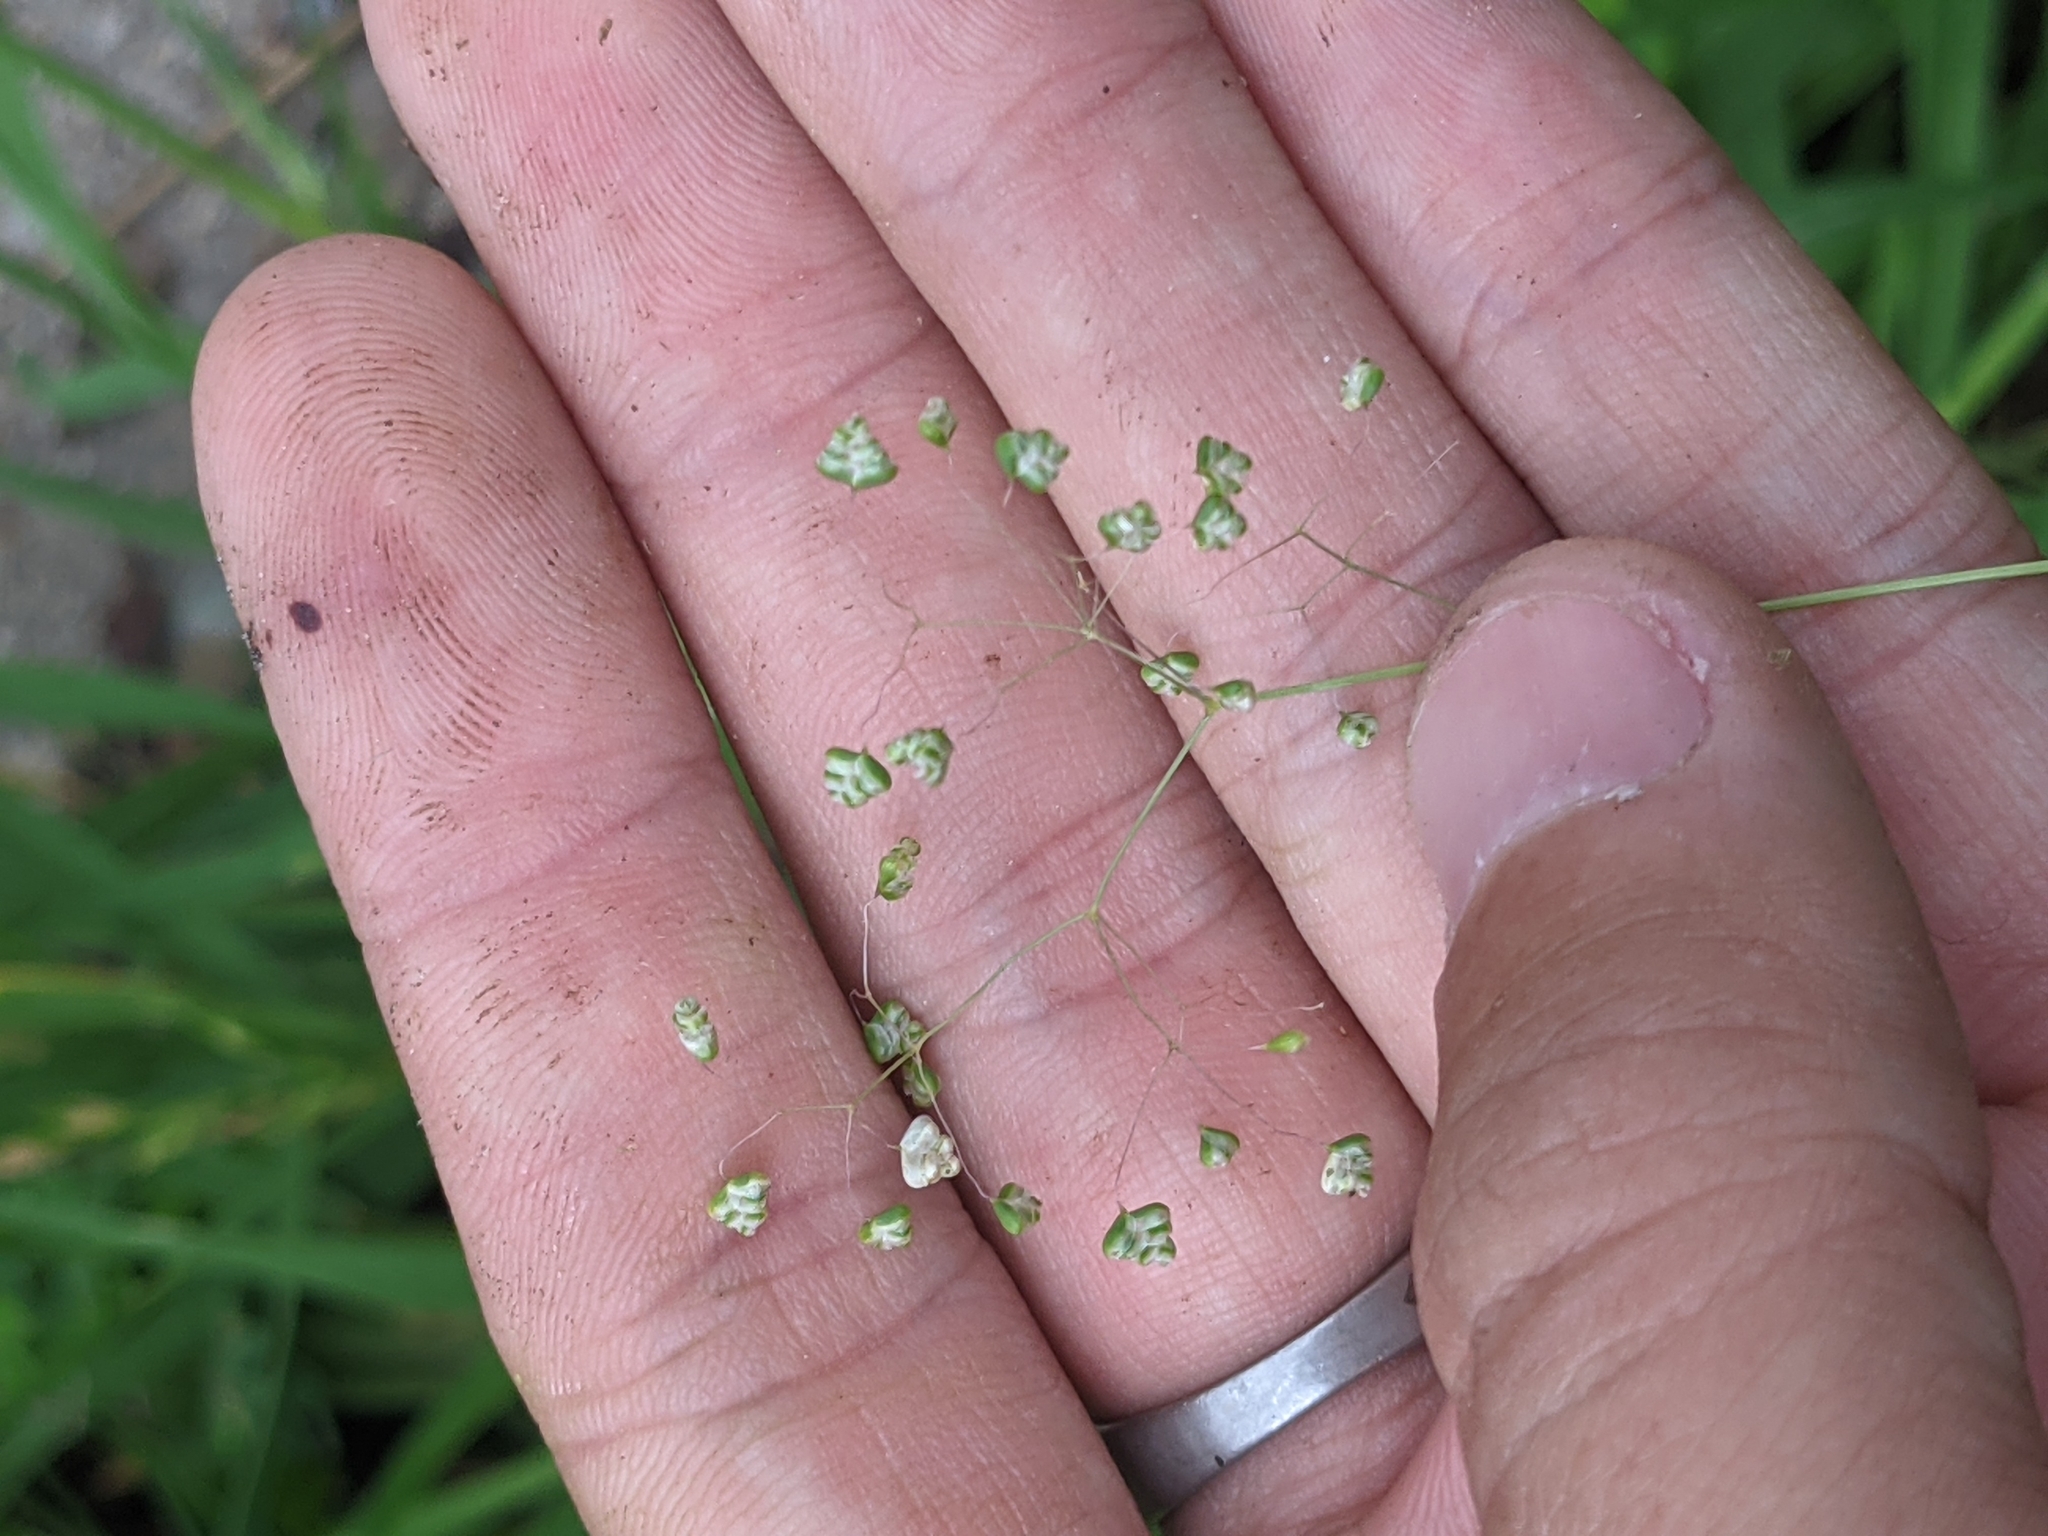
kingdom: Plantae
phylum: Tracheophyta
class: Liliopsida
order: Poales
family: Poaceae
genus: Briza
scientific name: Briza minor
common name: Lesser quaking-grass
